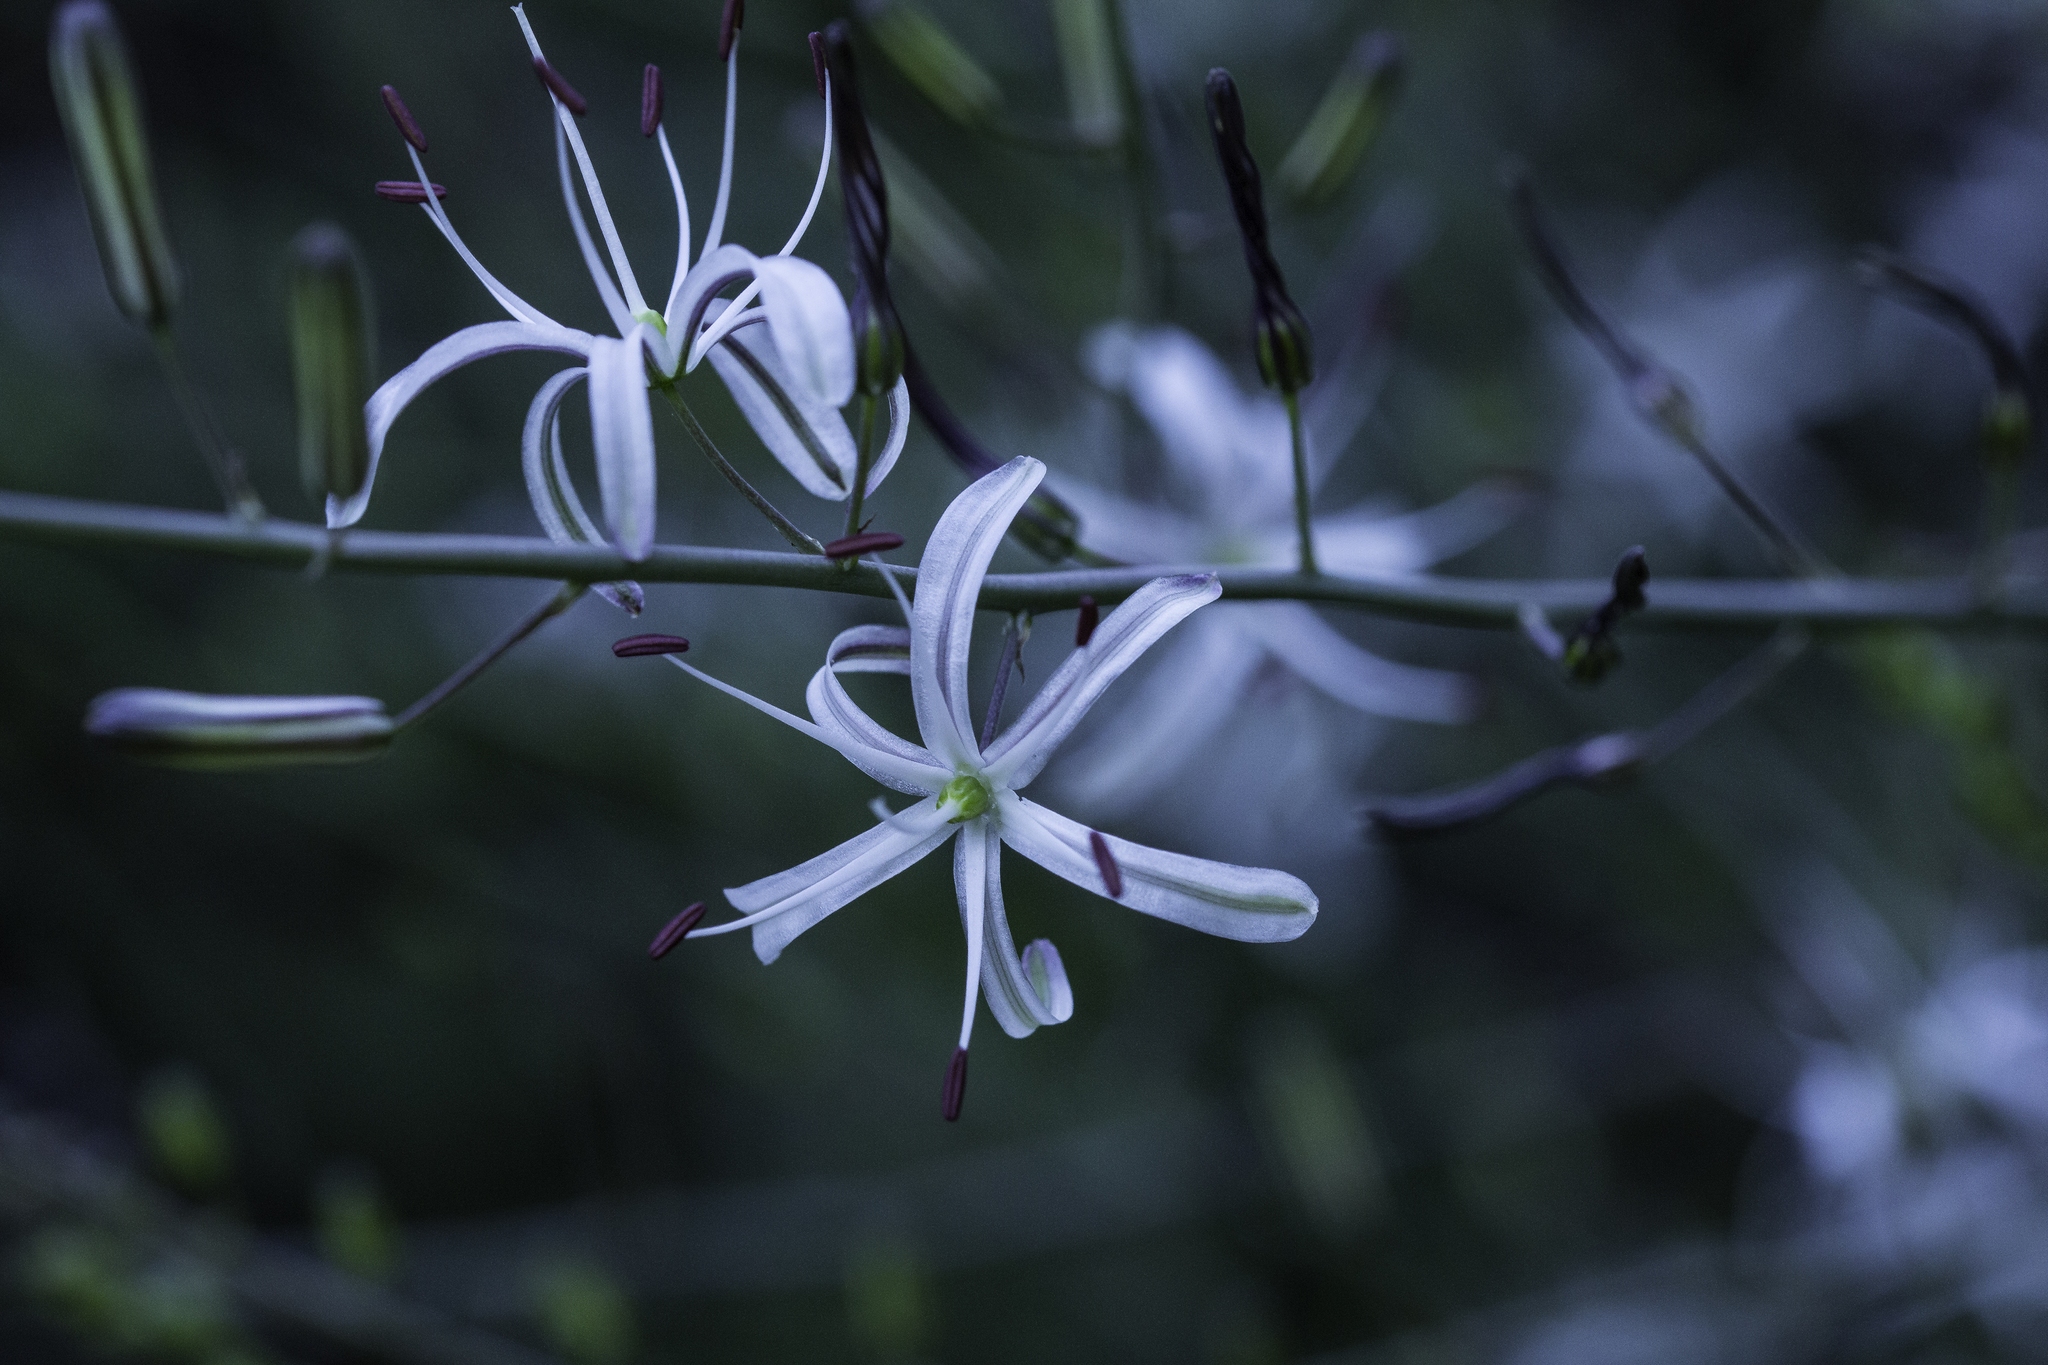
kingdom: Plantae
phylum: Tracheophyta
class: Liliopsida
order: Asparagales
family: Asparagaceae
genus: Chlorogalum
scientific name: Chlorogalum pomeridianum
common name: Amole
